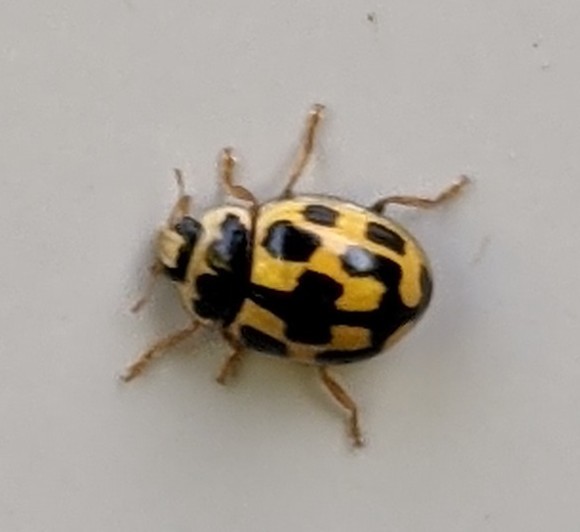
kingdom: Animalia
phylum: Arthropoda
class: Insecta
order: Coleoptera
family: Coccinellidae
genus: Propylaea
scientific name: Propylaea quatuordecimpunctata
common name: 14-spotted ladybird beetle
